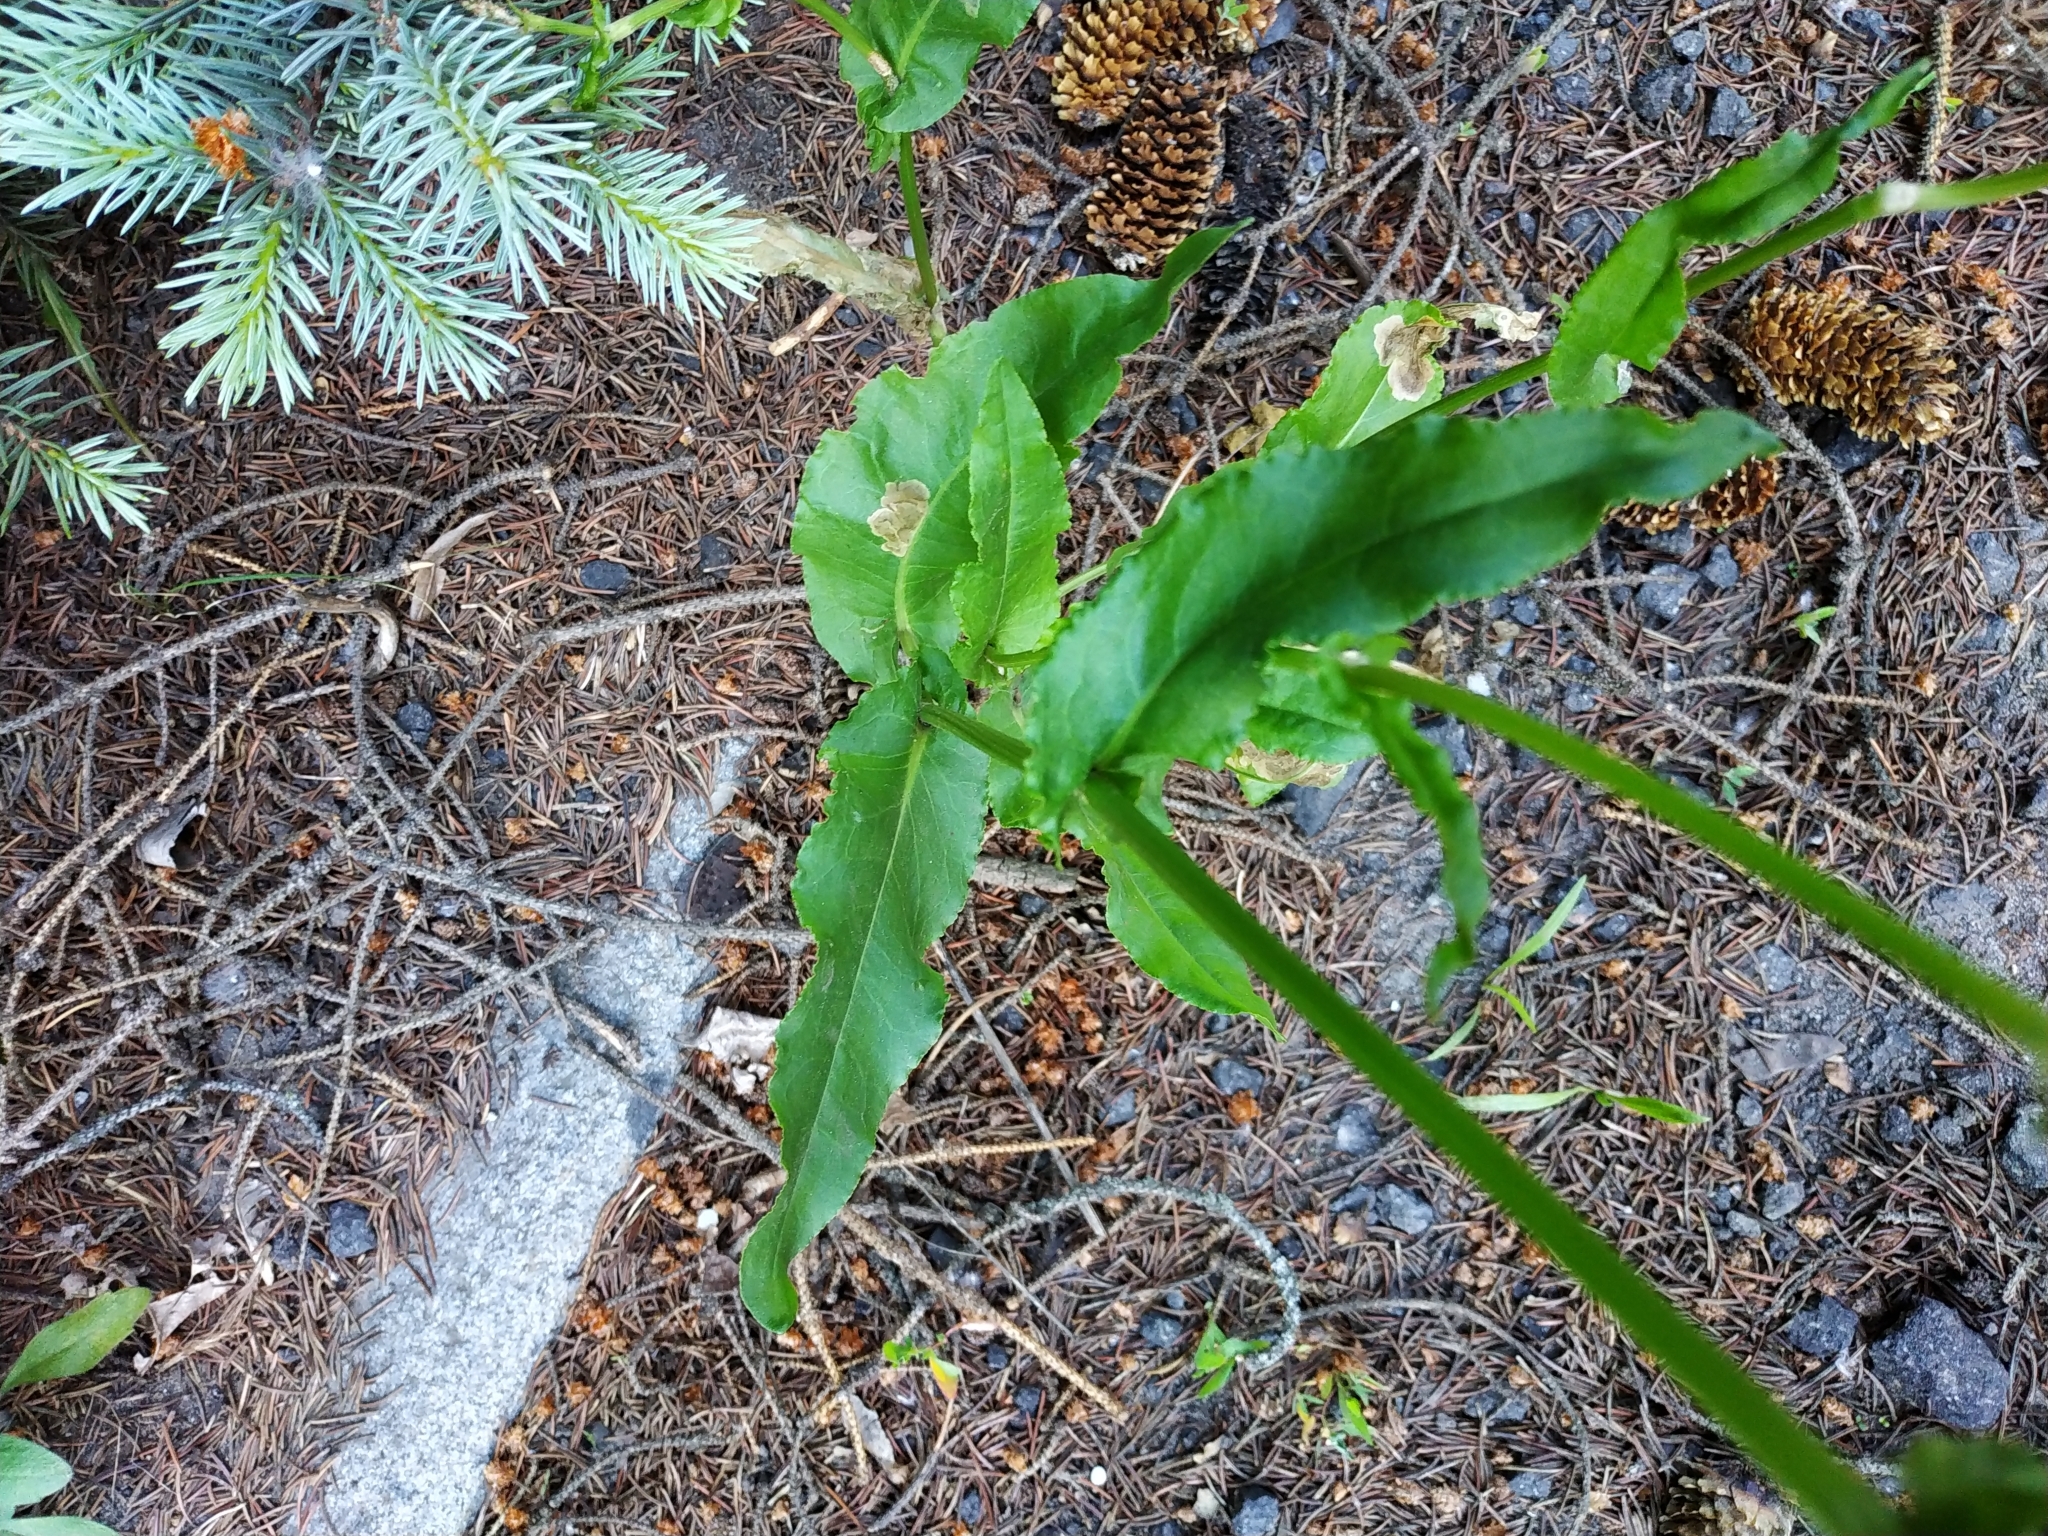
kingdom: Plantae
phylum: Tracheophyta
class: Magnoliopsida
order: Caryophyllales
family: Polygonaceae
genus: Rumex
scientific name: Rumex thyrsiflorus
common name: Garden sorrel
